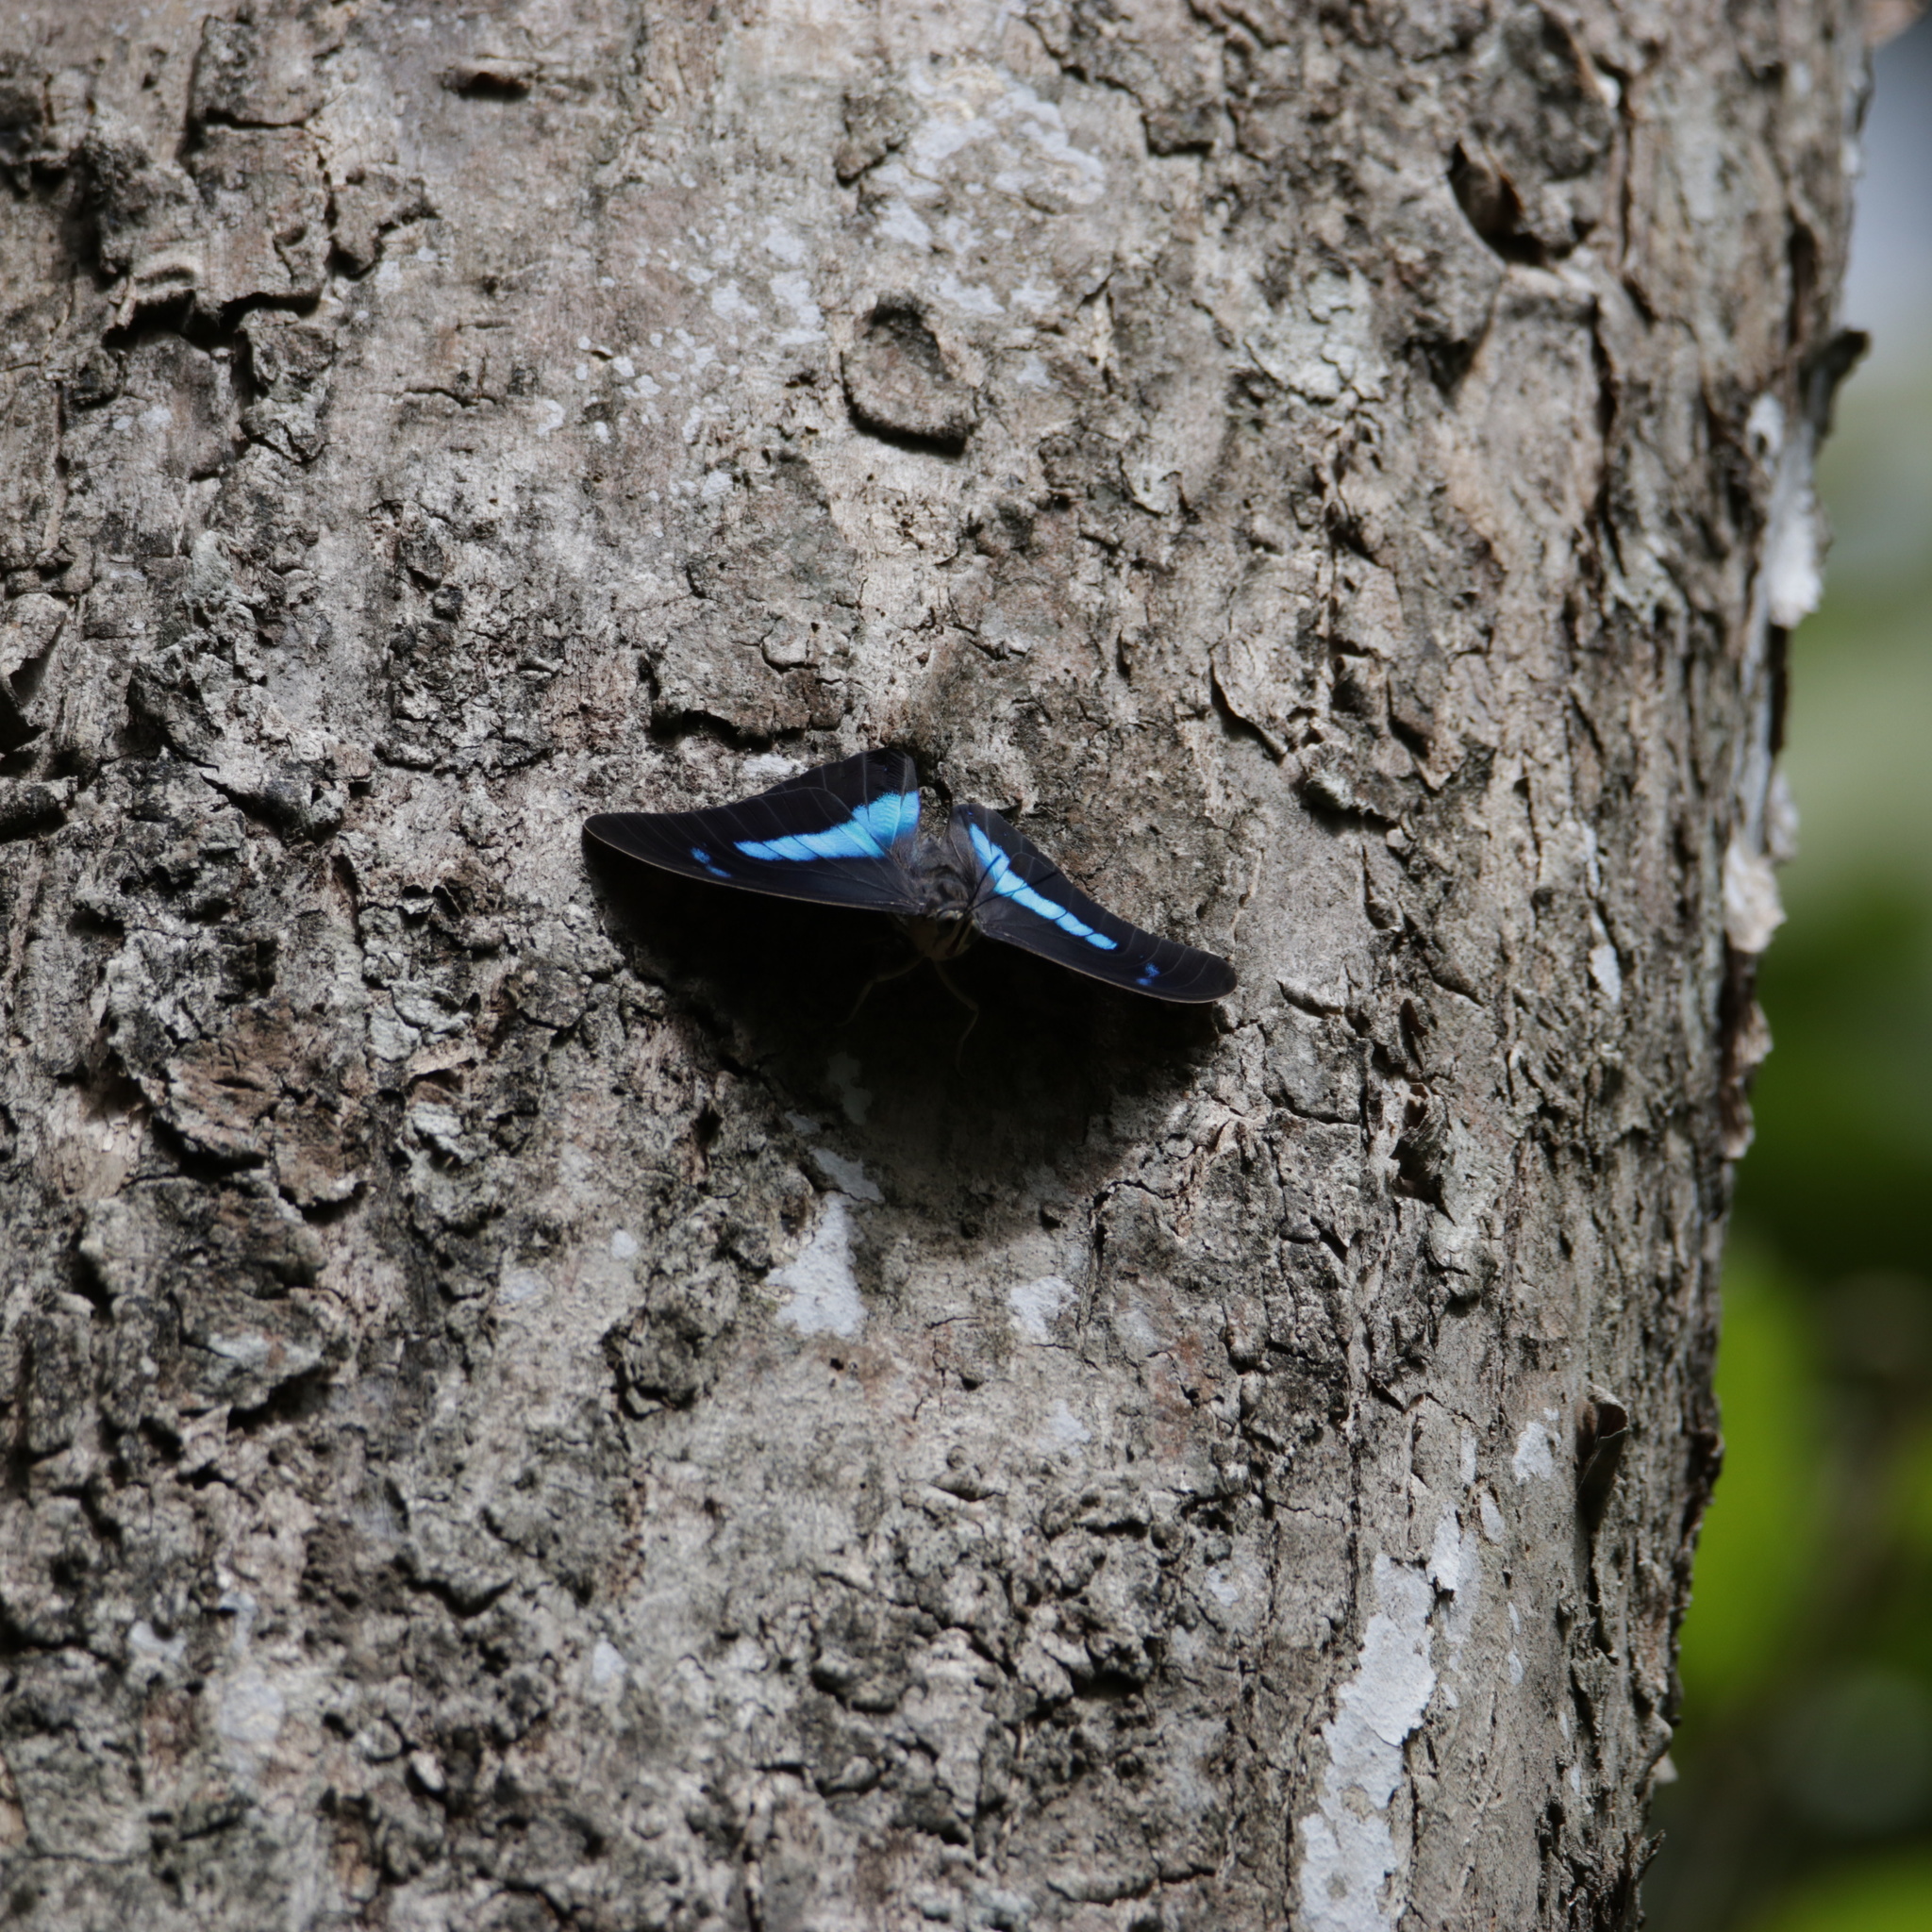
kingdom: Animalia
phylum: Arthropoda
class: Insecta
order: Lepidoptera
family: Nymphalidae
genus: Prepona
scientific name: Prepona demophon
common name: One-spotted prepona
